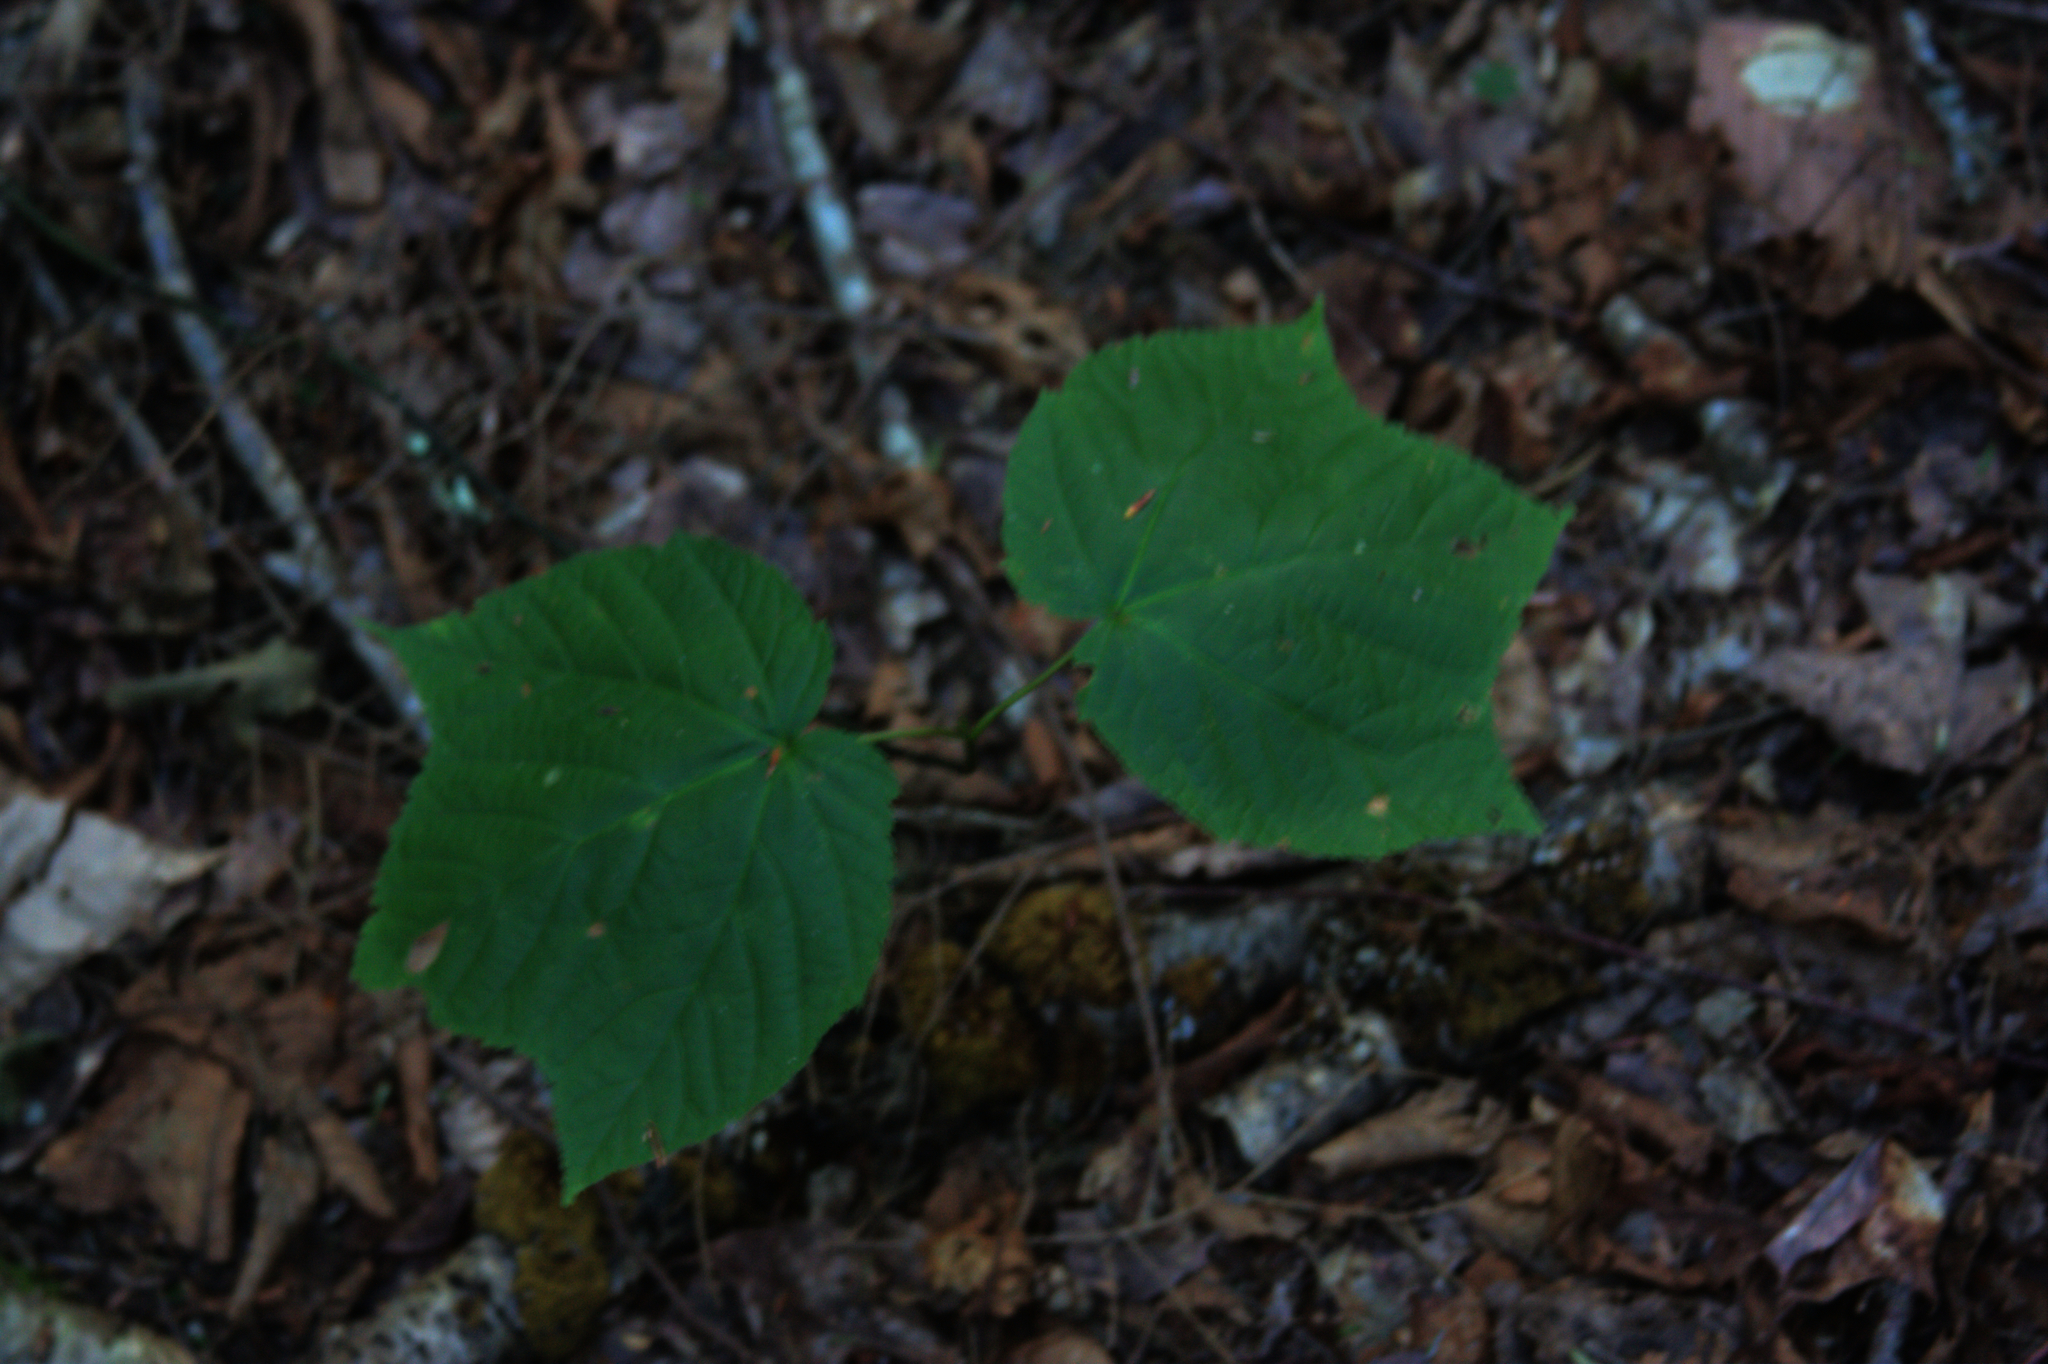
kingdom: Plantae
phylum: Tracheophyta
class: Magnoliopsida
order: Sapindales
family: Sapindaceae
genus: Acer
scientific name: Acer pensylvanicum
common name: Moosewood
